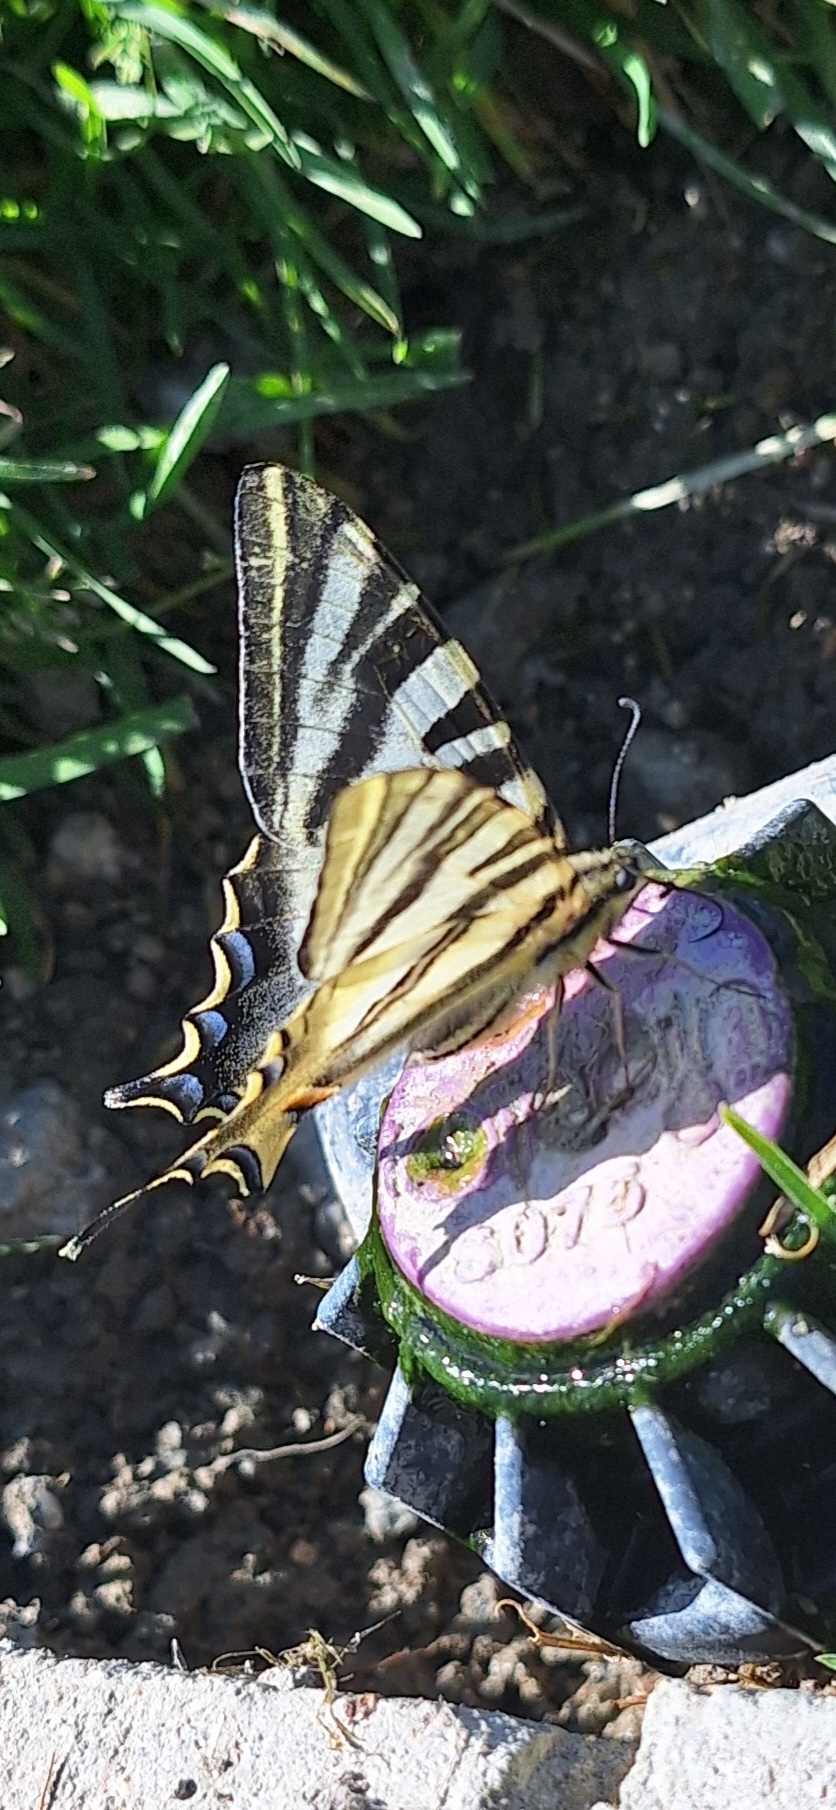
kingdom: Animalia
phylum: Arthropoda
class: Insecta
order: Lepidoptera
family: Papilionidae
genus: Iphiclides
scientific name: Iphiclides feisthamelii
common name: Iberian scarce swallowtail
